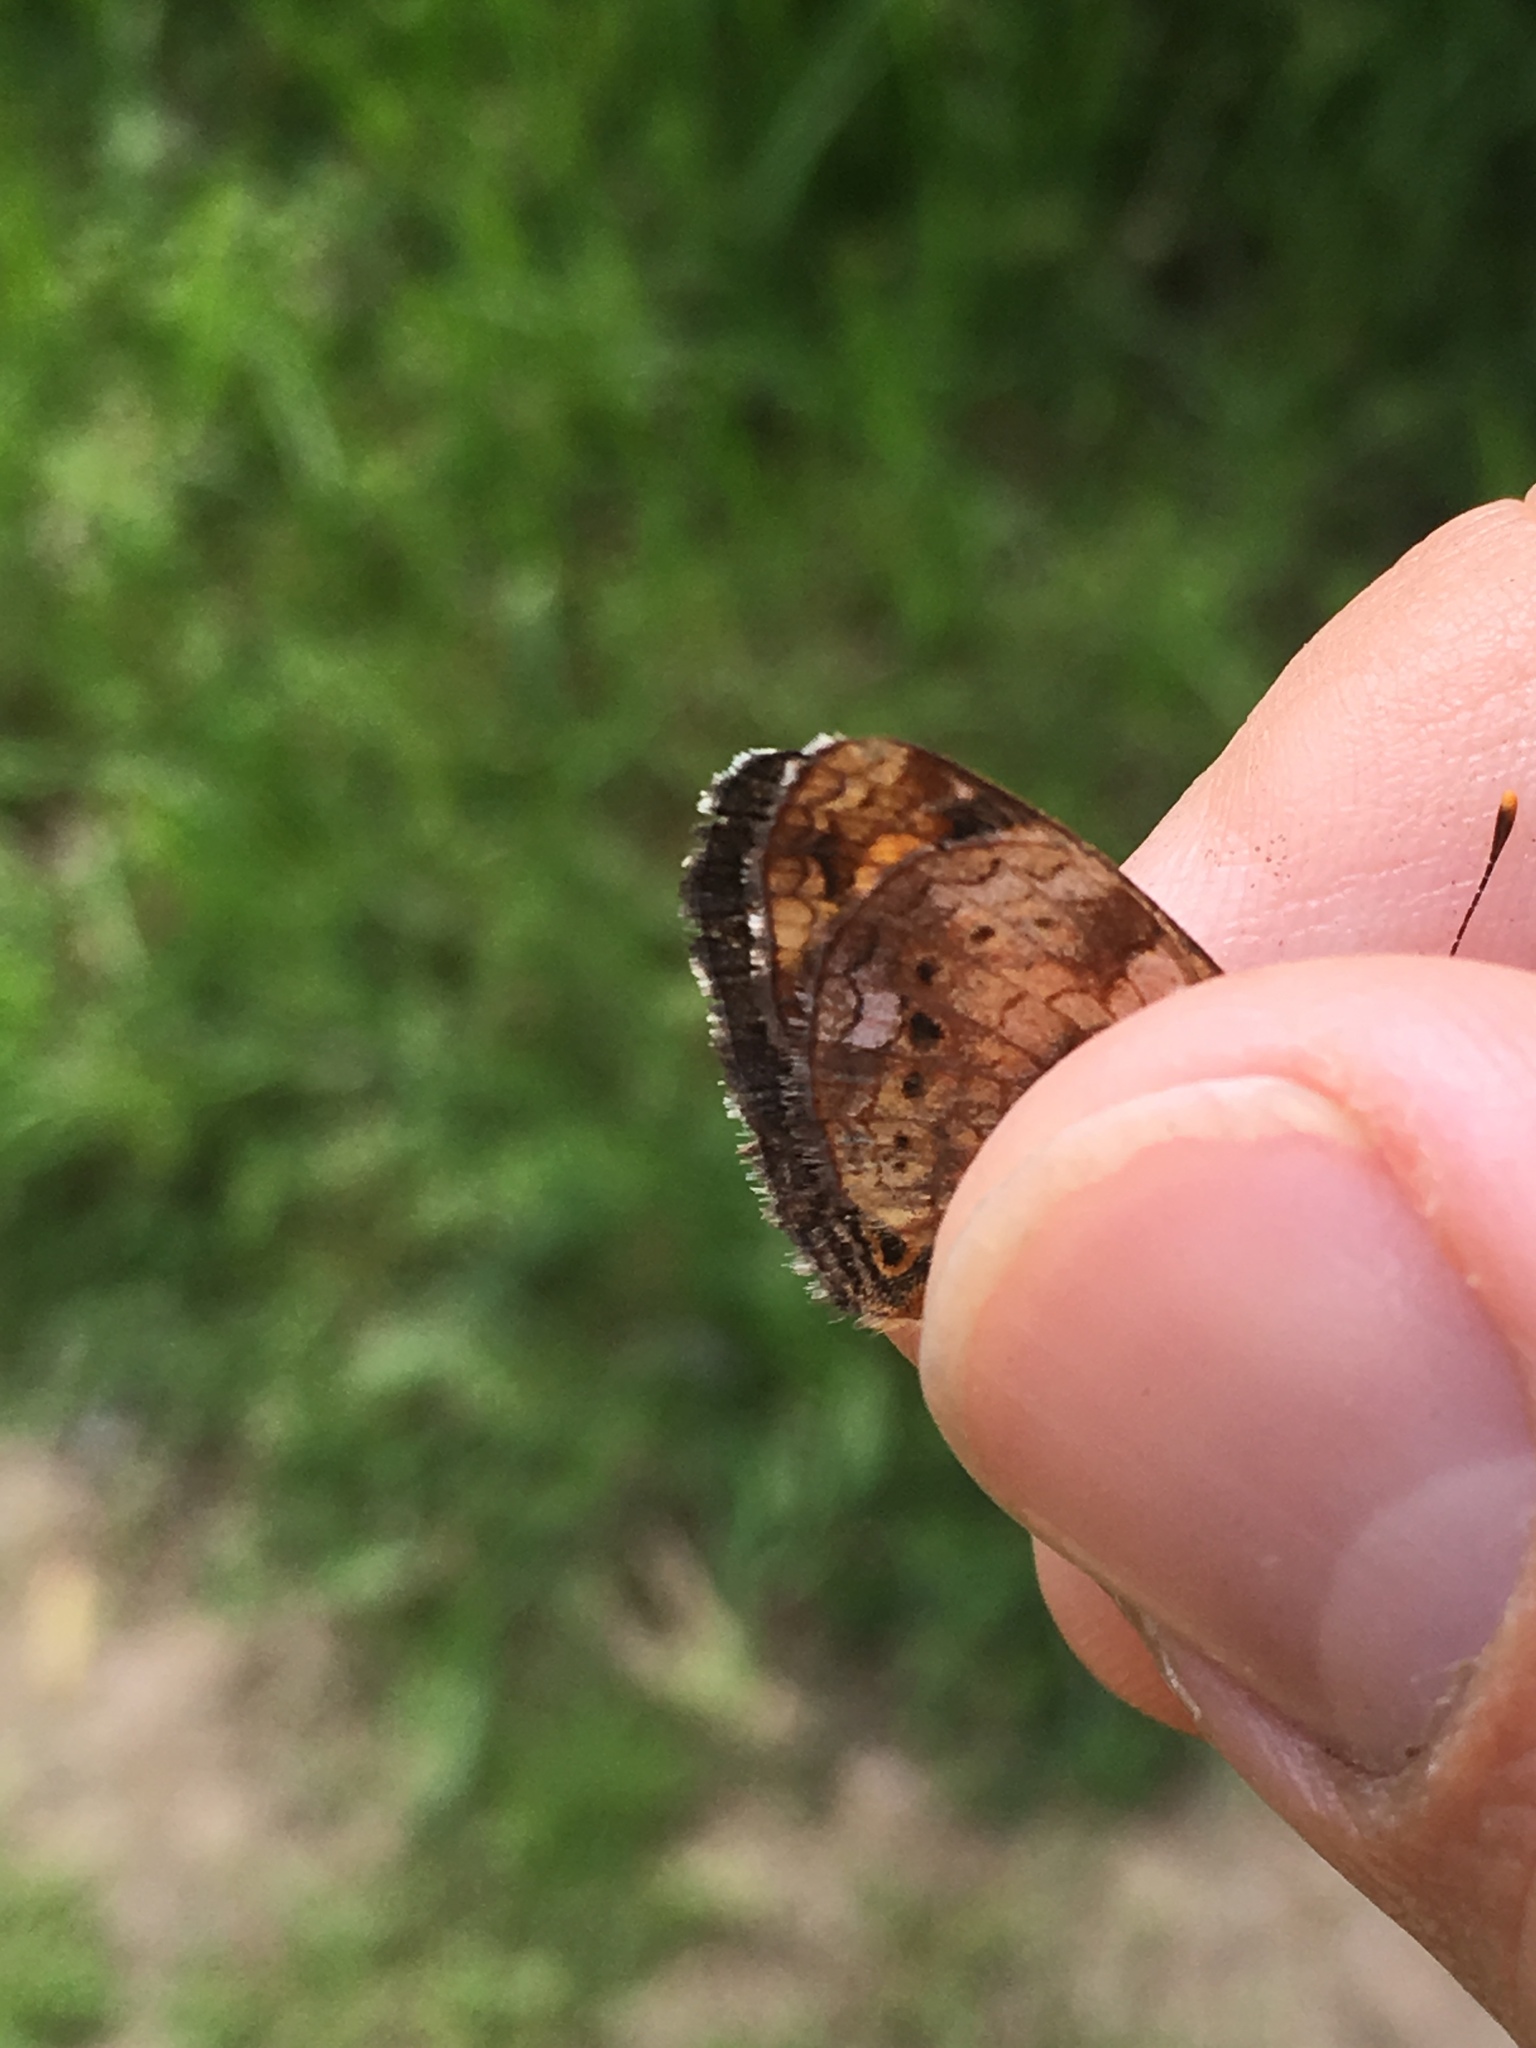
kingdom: Animalia
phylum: Arthropoda
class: Insecta
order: Lepidoptera
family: Nymphalidae
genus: Phyciodes
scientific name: Phyciodes tharos
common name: Pearl crescent
